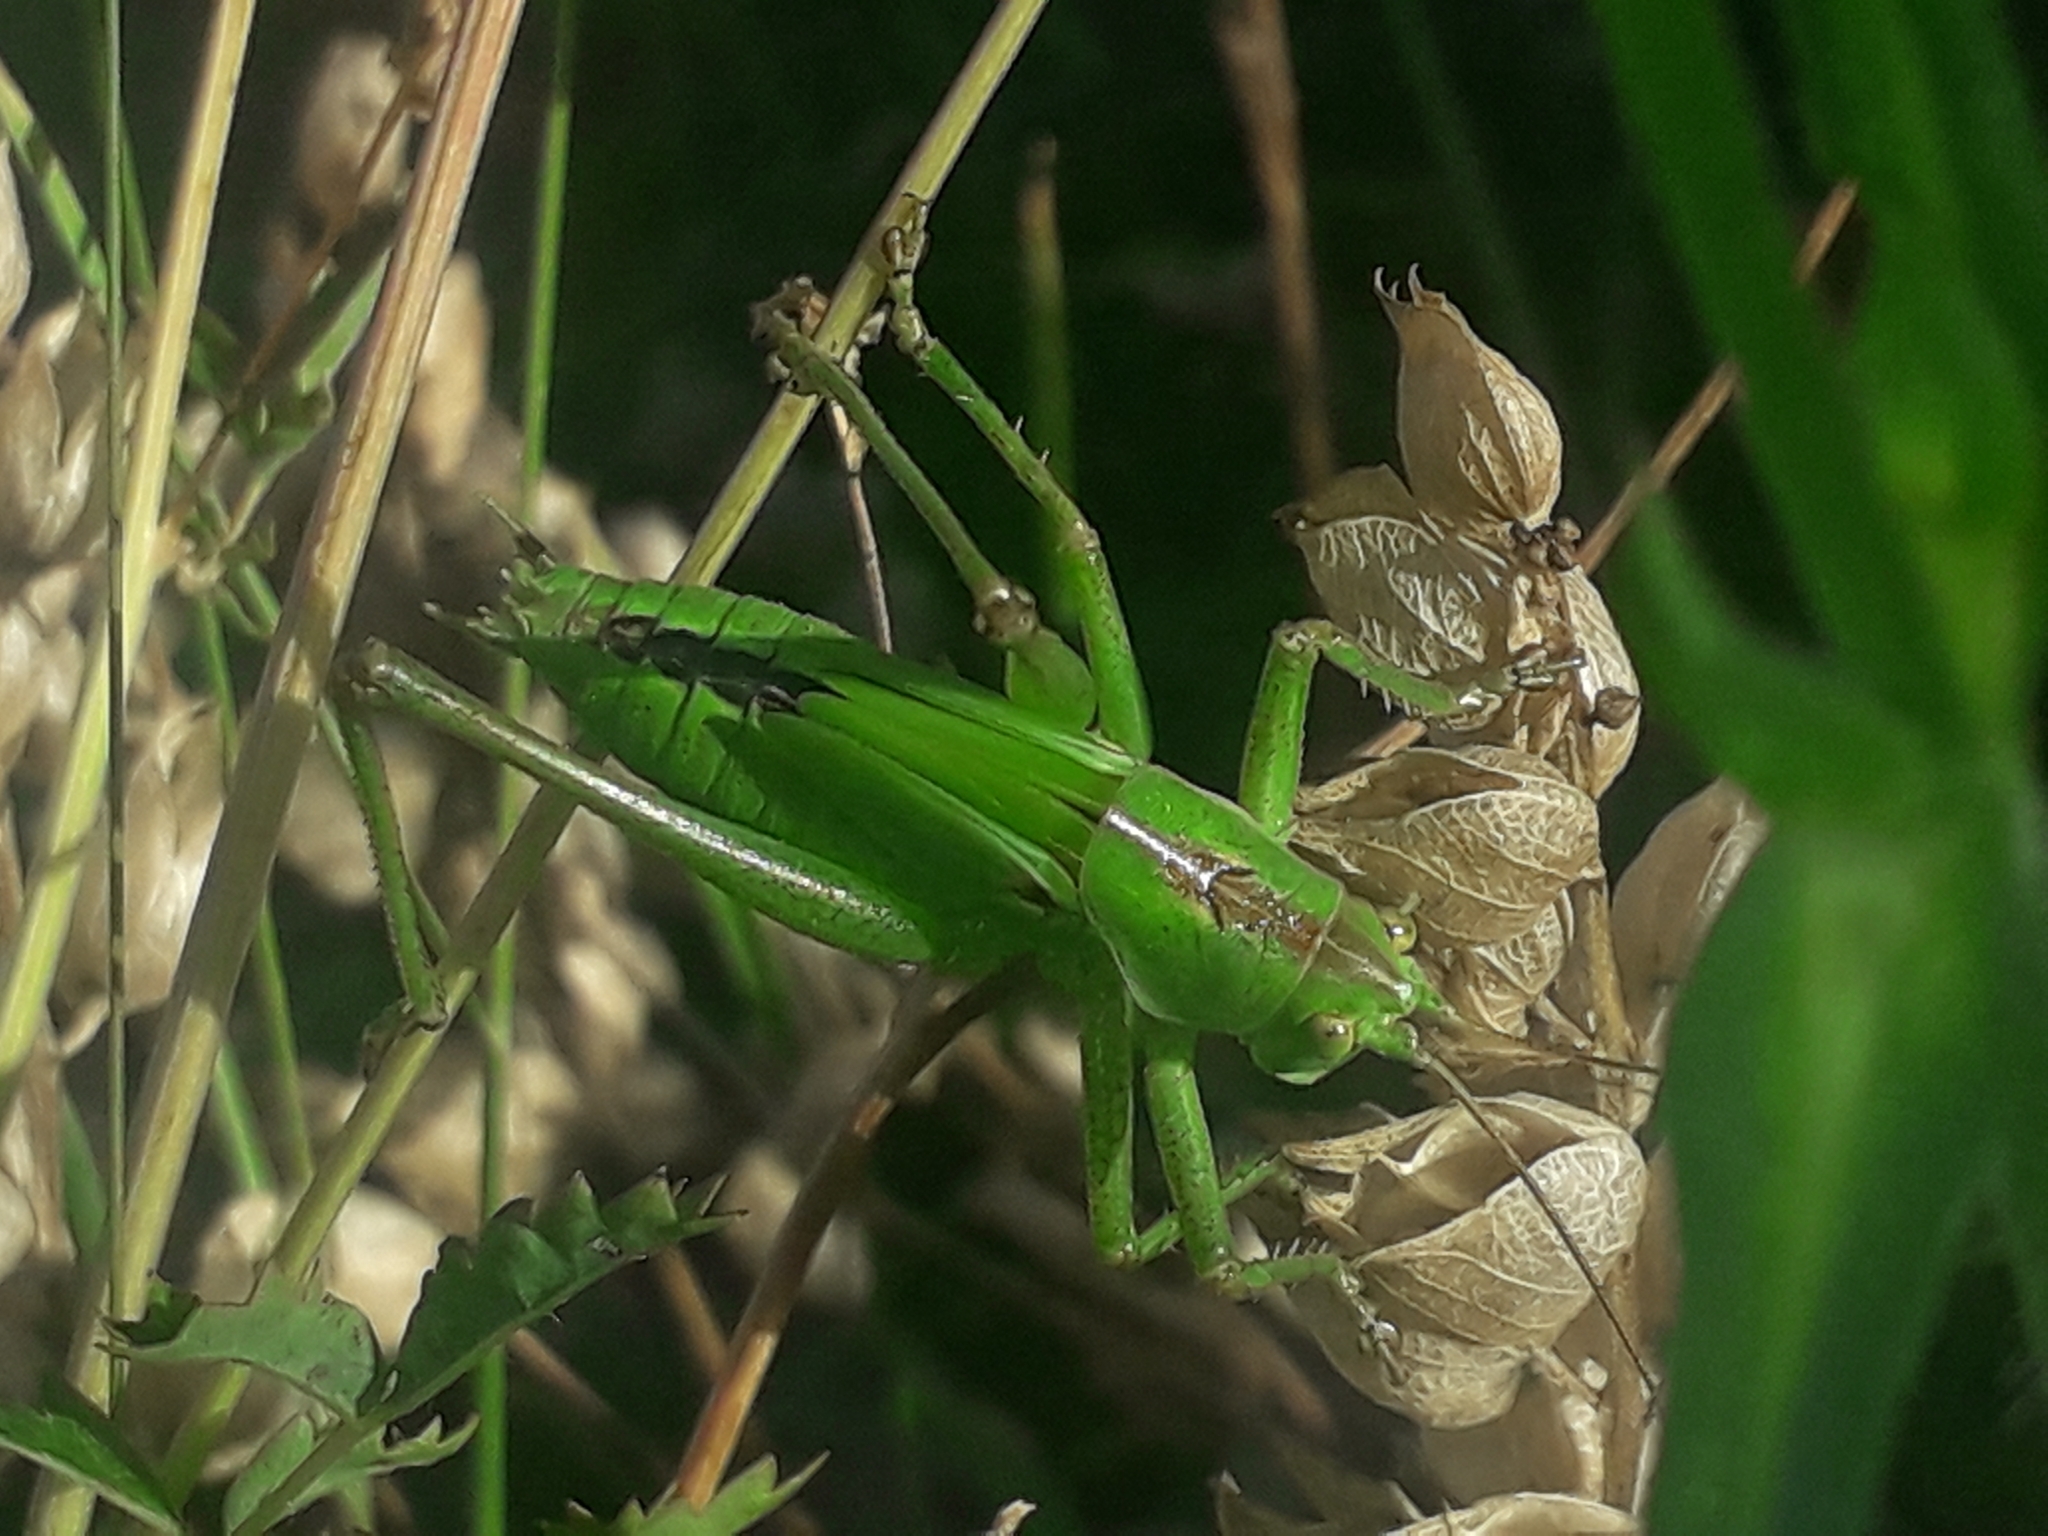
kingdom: Animalia
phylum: Arthropoda
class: Insecta
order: Orthoptera
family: Tettigoniidae
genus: Tettigonia
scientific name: Tettigonia viridissima
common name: Great green bush-cricket
